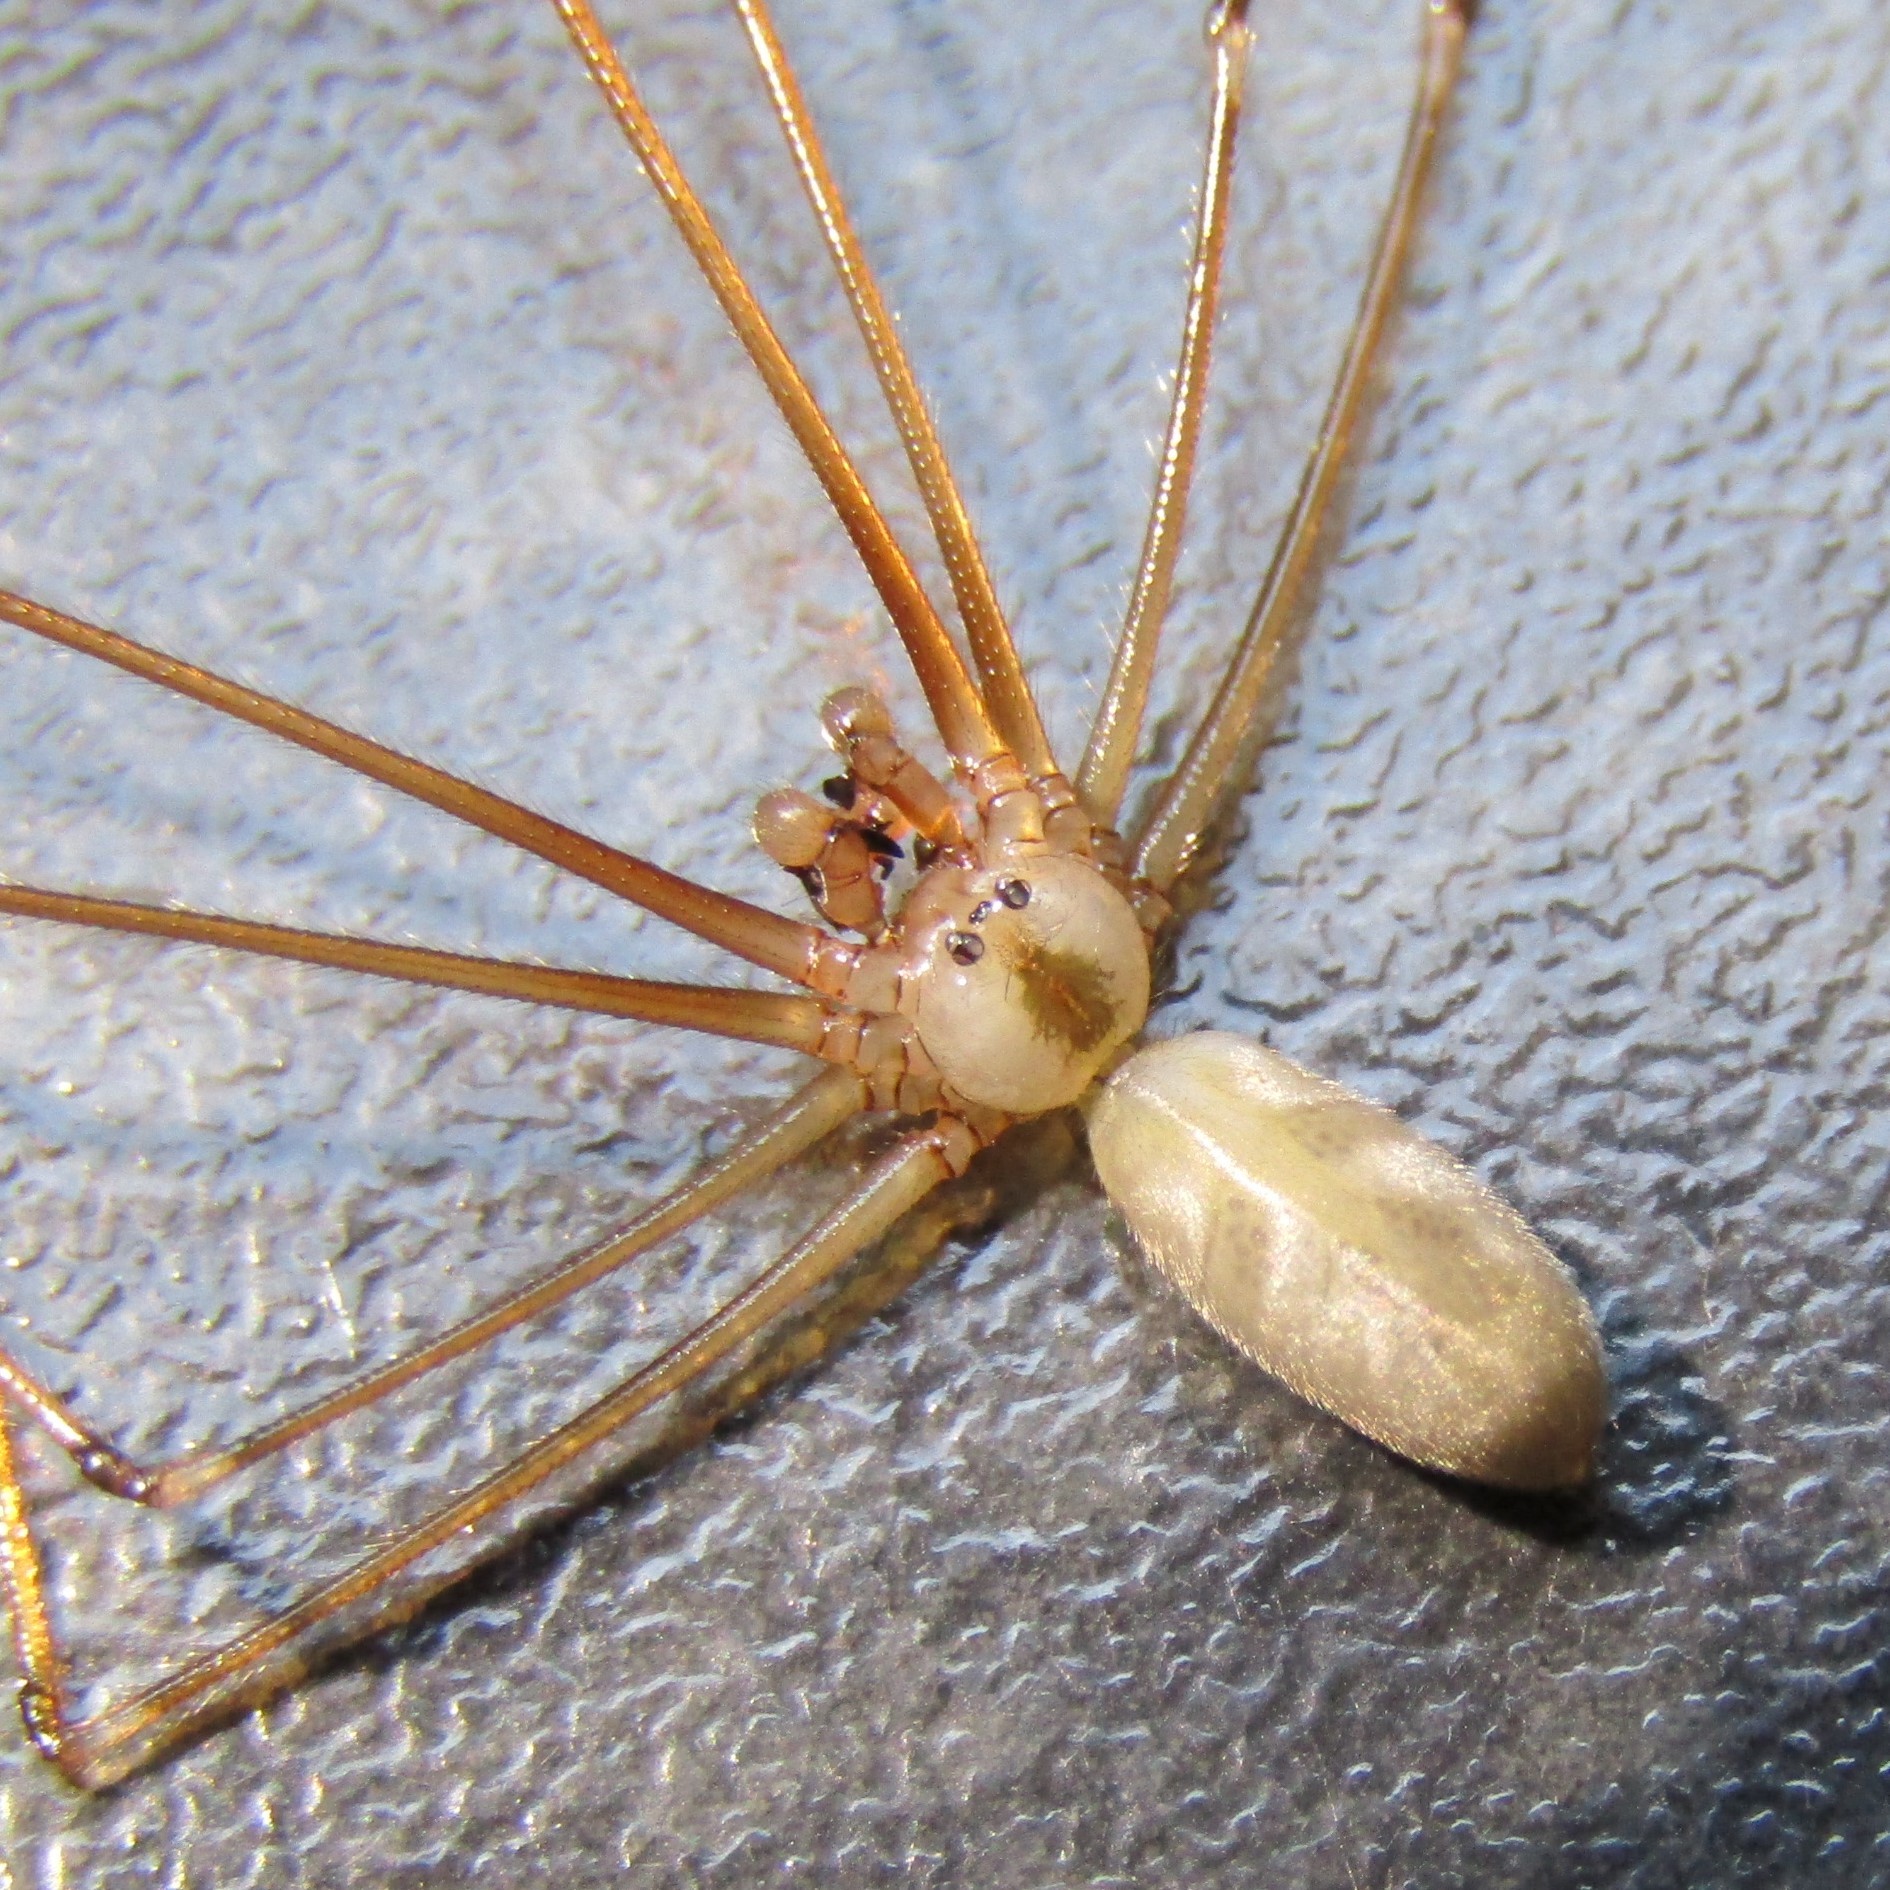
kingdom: Animalia
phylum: Arthropoda
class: Arachnida
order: Araneae
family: Pholcidae
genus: Pholcus
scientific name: Pholcus phalangioides
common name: Longbodied cellar spider
